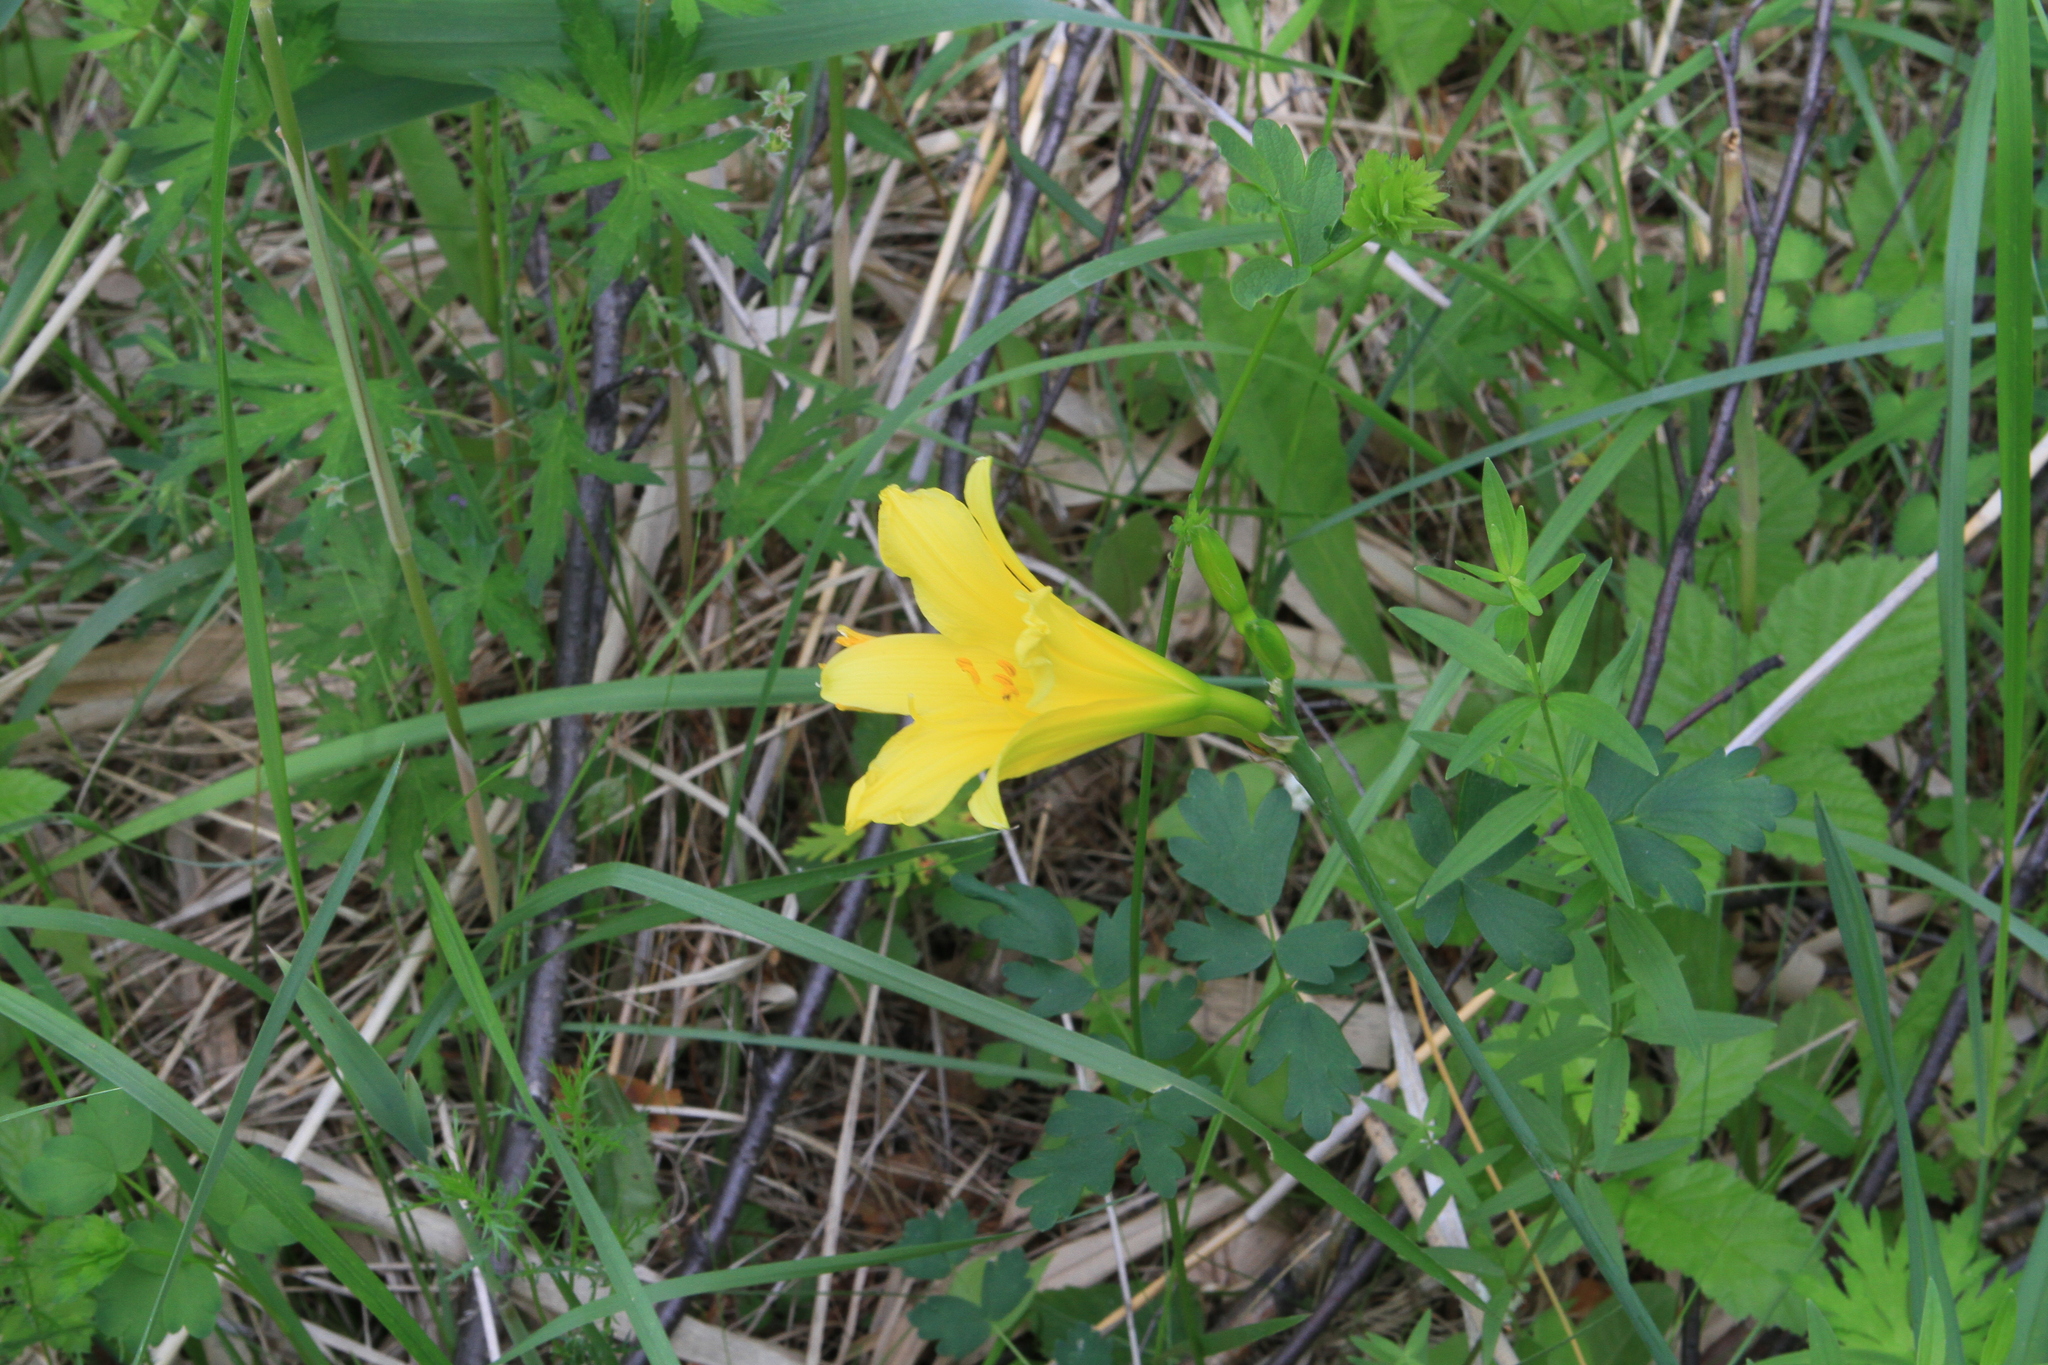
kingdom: Plantae
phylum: Tracheophyta
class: Liliopsida
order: Asparagales
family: Asphodelaceae
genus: Hemerocallis
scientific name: Hemerocallis minor
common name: Small daylily
